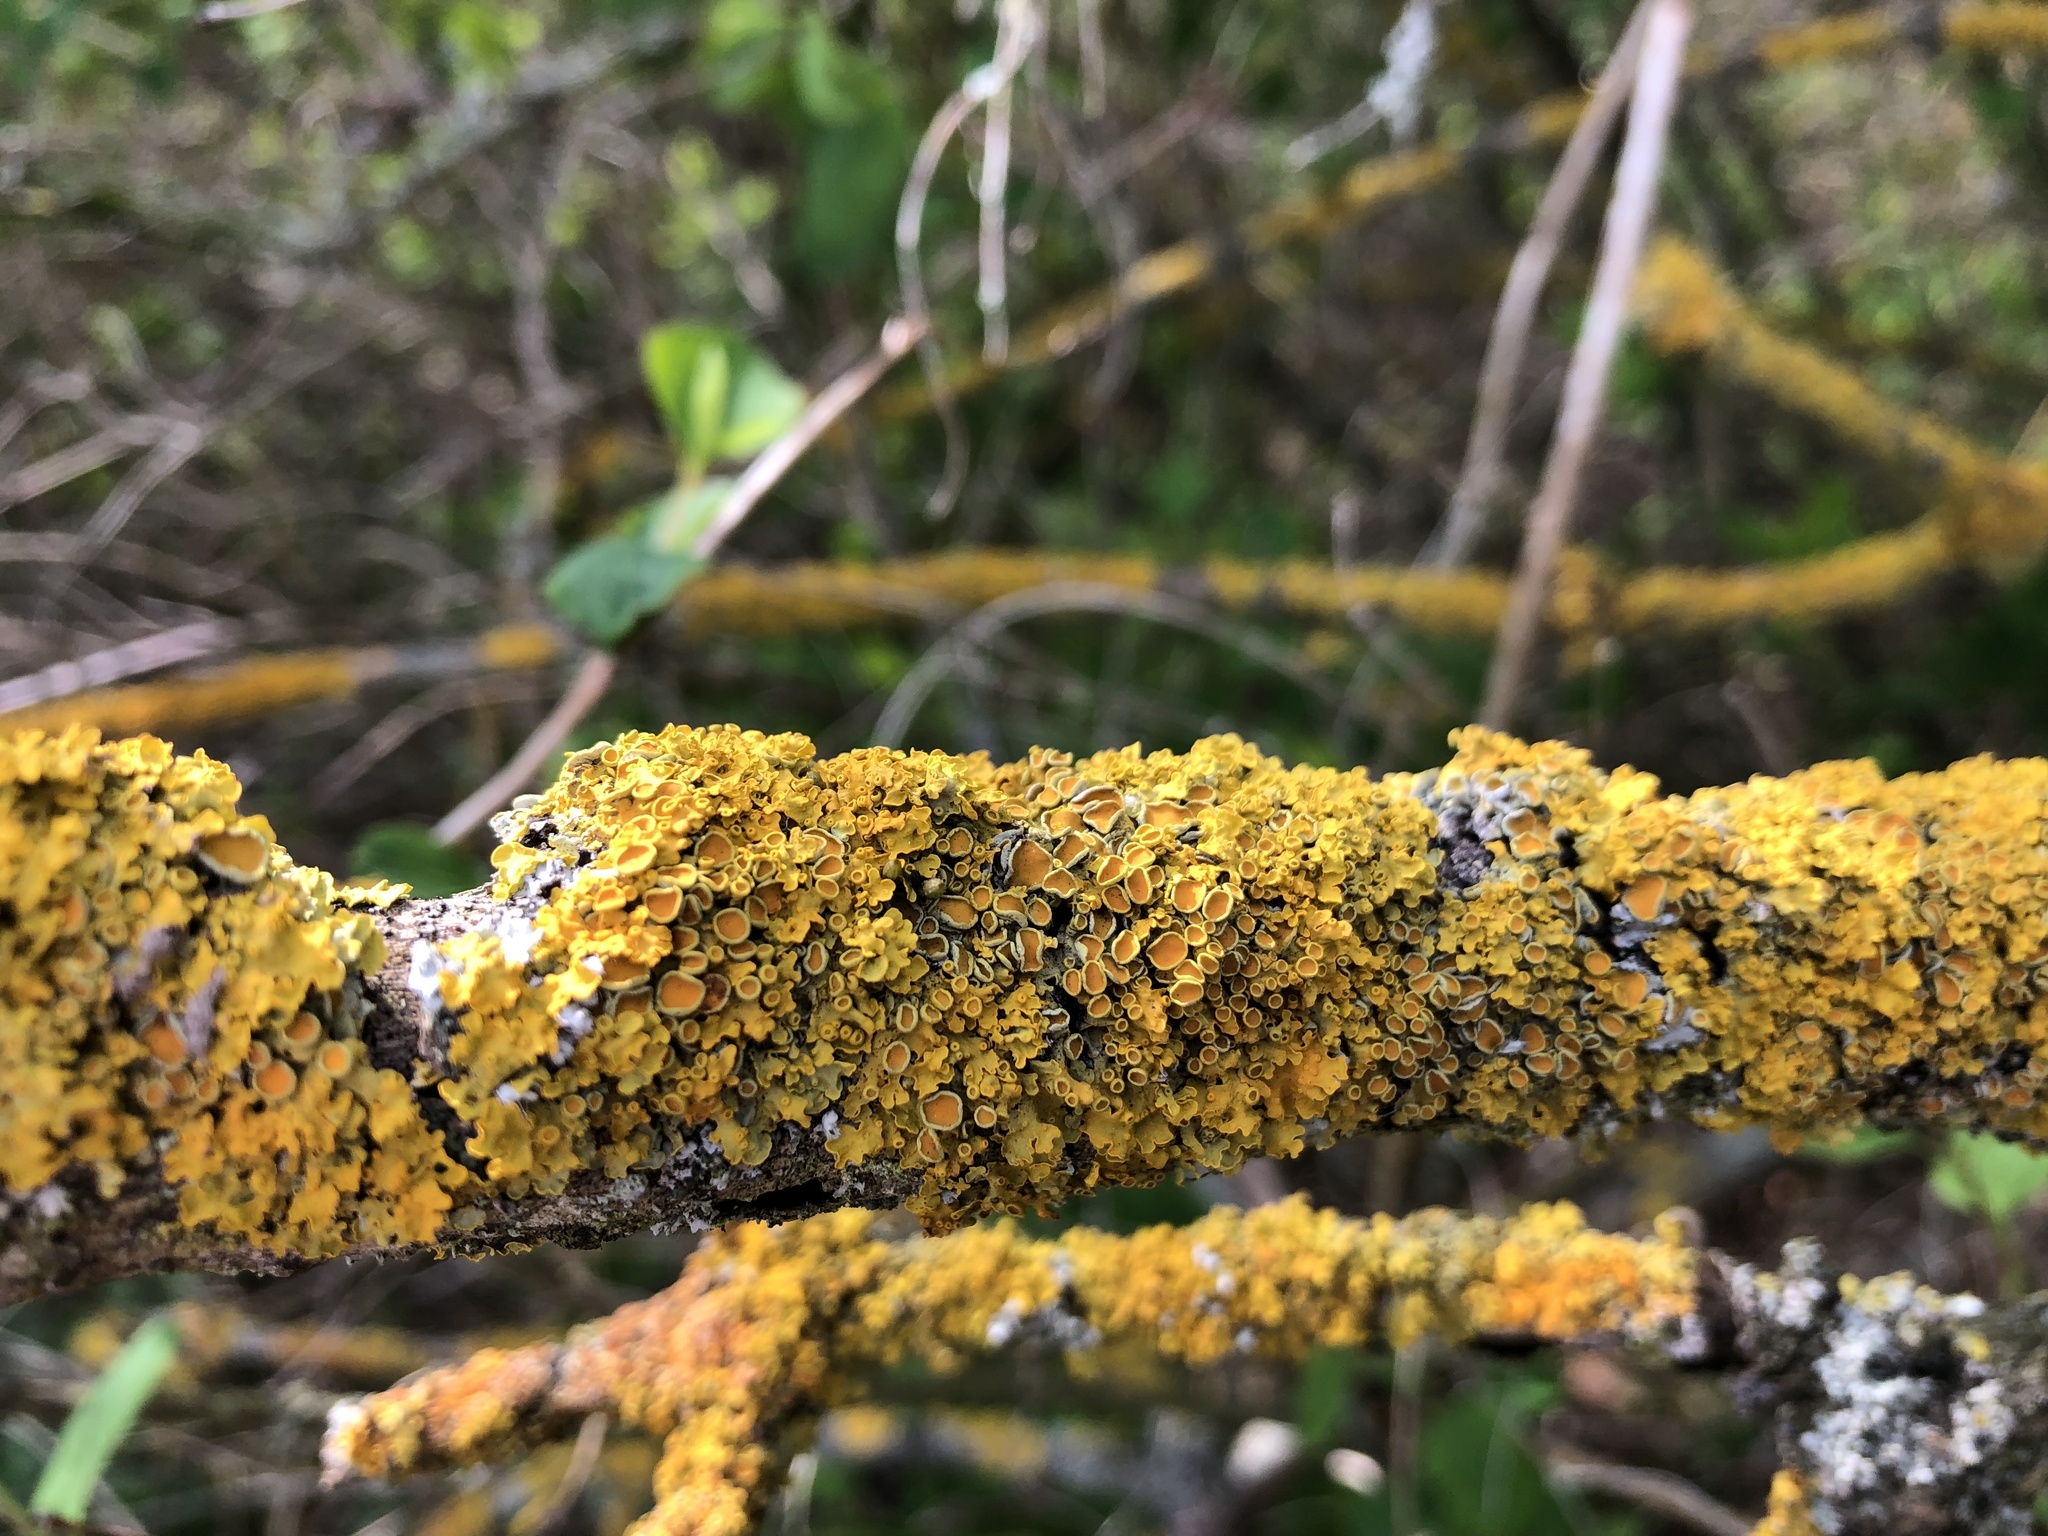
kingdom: Fungi
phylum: Ascomycota
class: Lecanoromycetes
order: Teloschistales
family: Teloschistaceae
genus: Xanthoria
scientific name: Xanthoria parietina
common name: Common orange lichen
